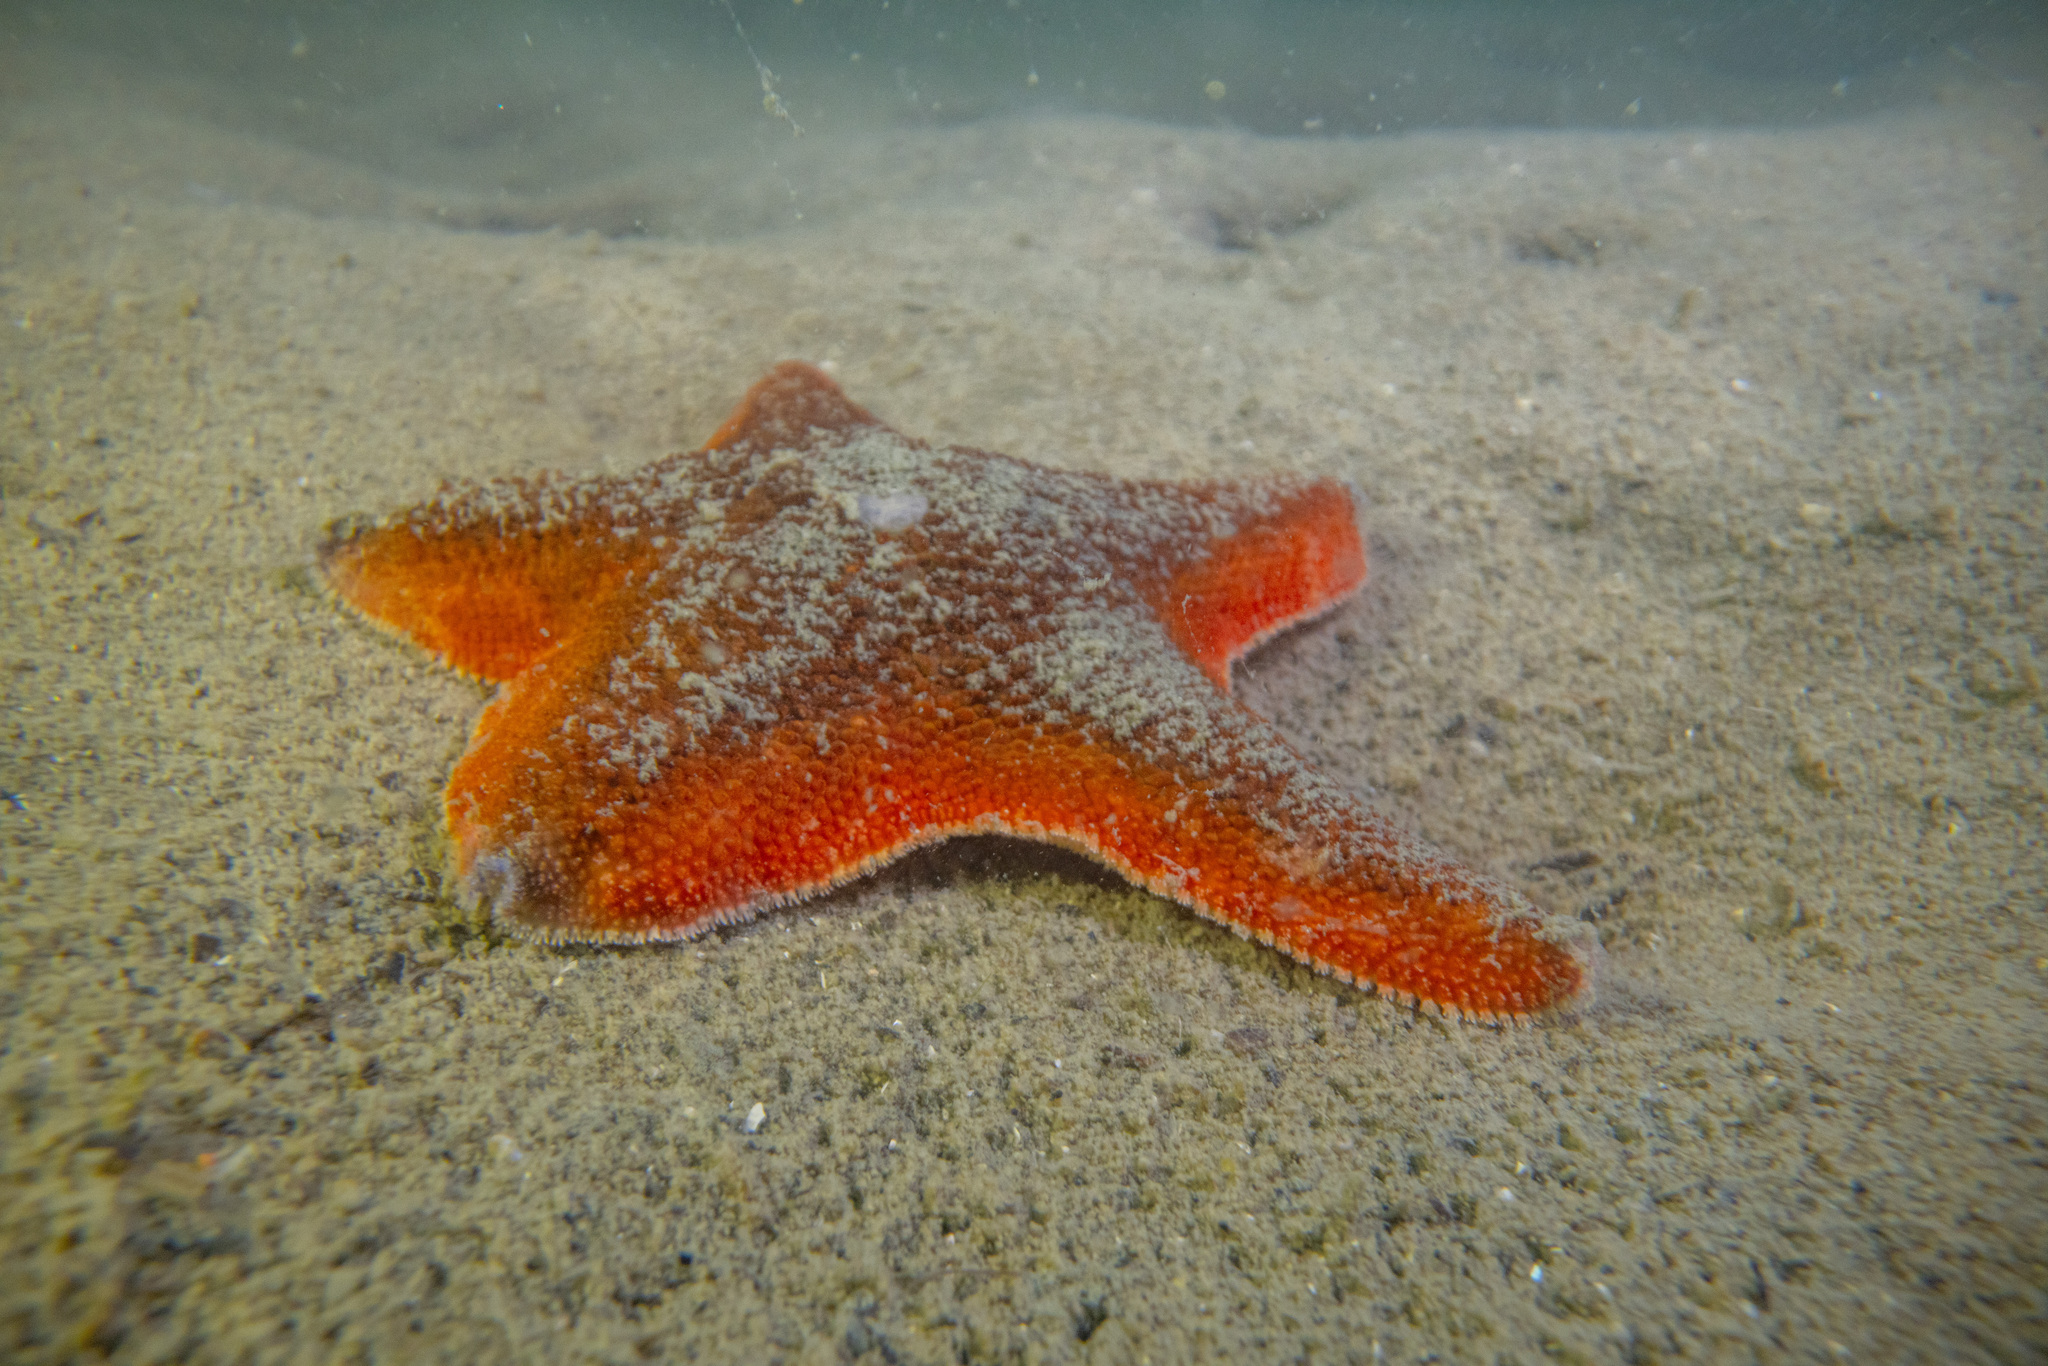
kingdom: Animalia
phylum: Echinodermata
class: Asteroidea
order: Valvatida
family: Asterinidae
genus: Patiriella
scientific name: Patiriella regularis
